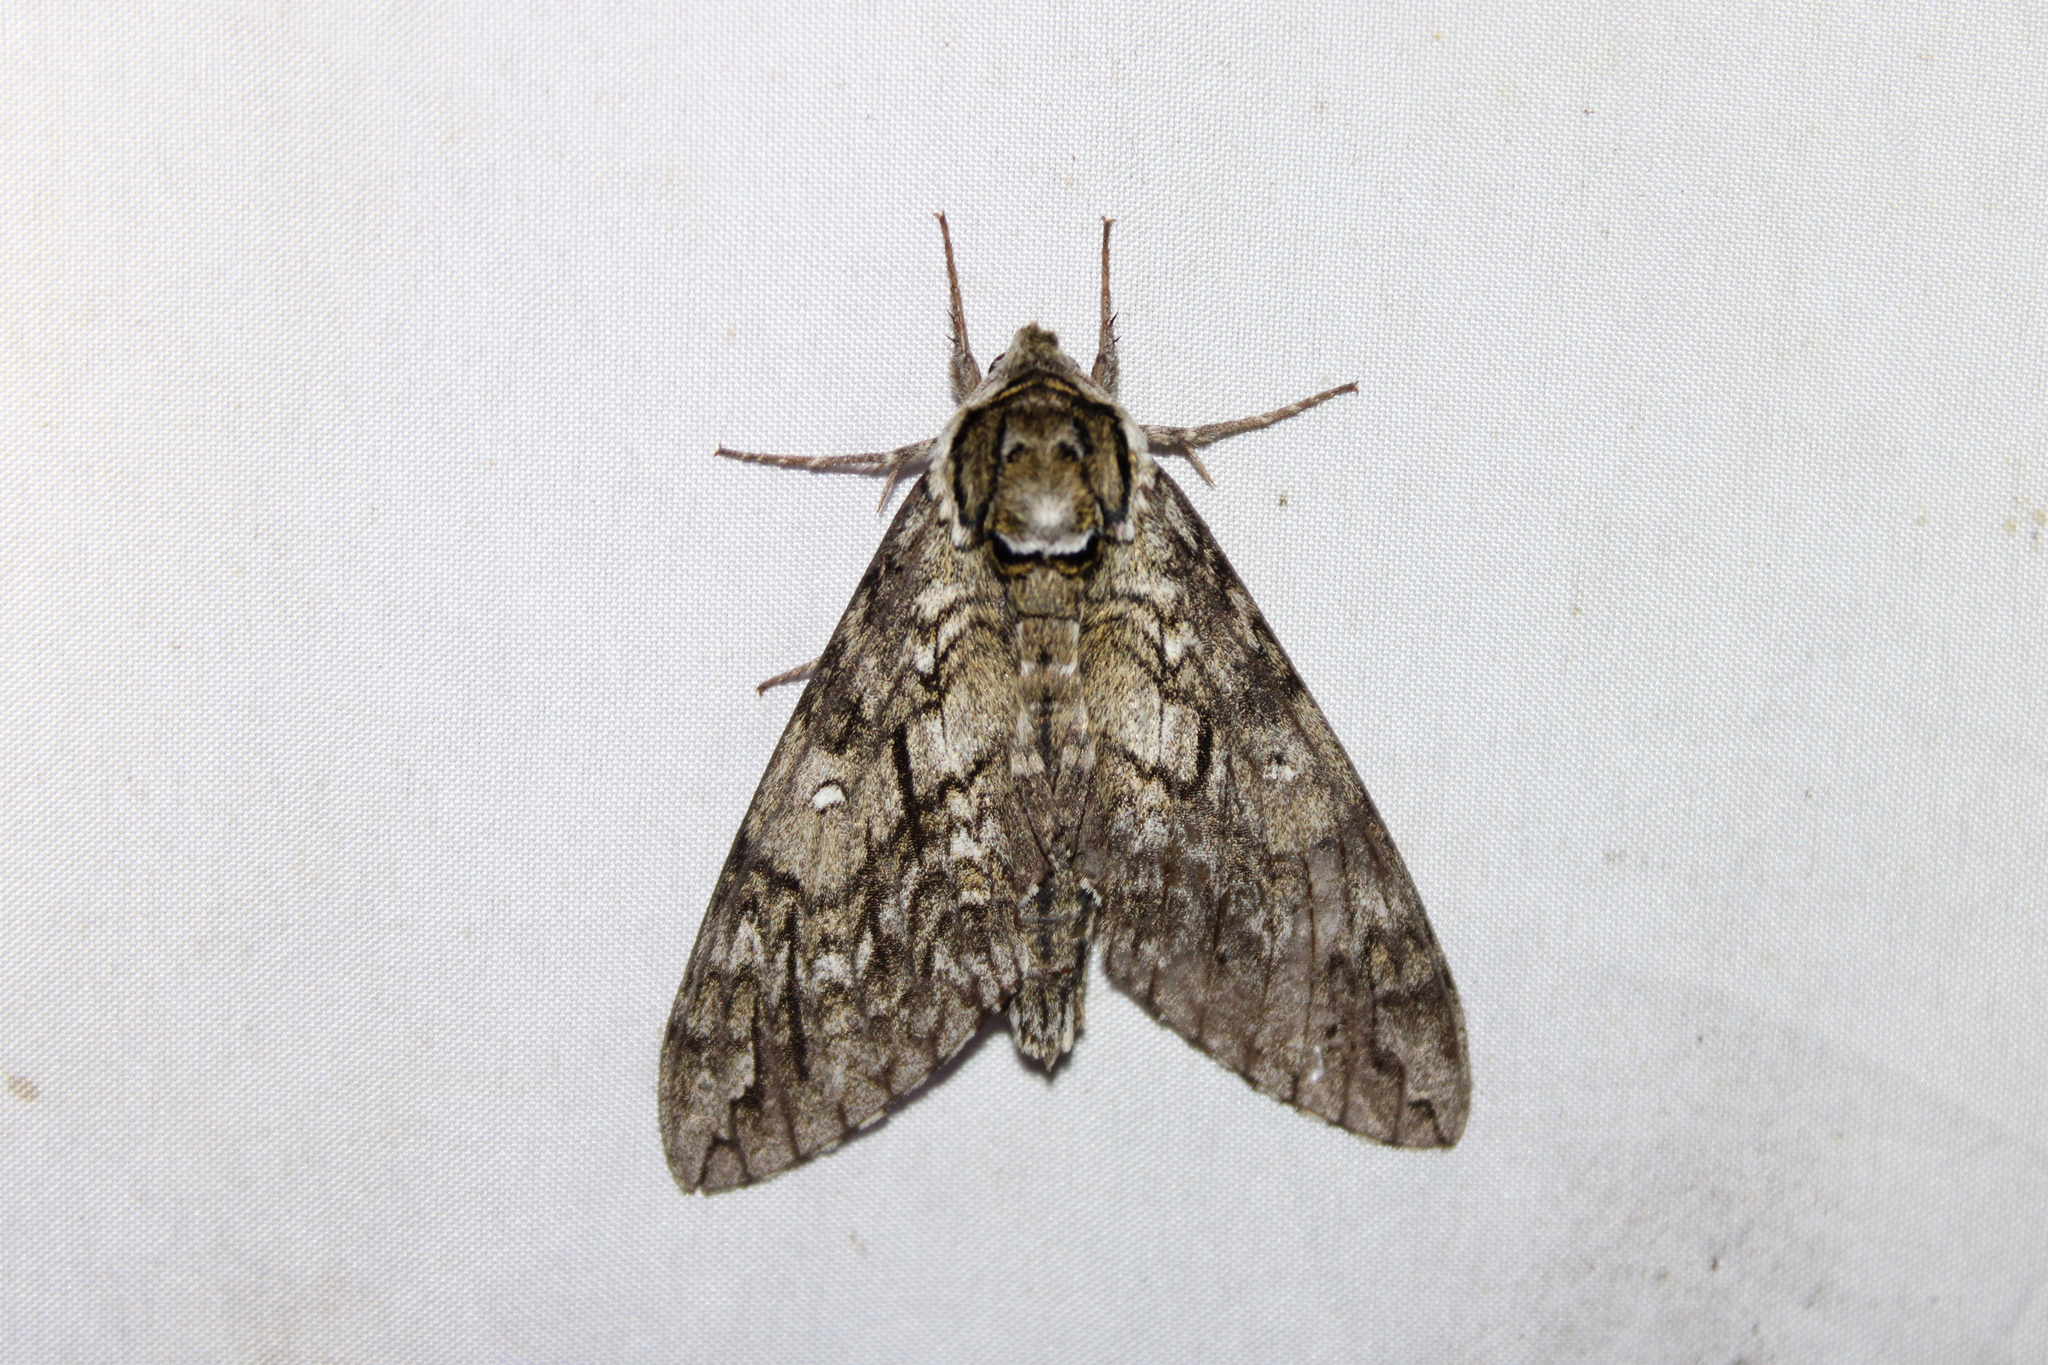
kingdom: Animalia
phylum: Arthropoda
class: Insecta
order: Lepidoptera
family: Sphingidae
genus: Ceratomia
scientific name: Ceratomia undulosa
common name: Waved sphinx
